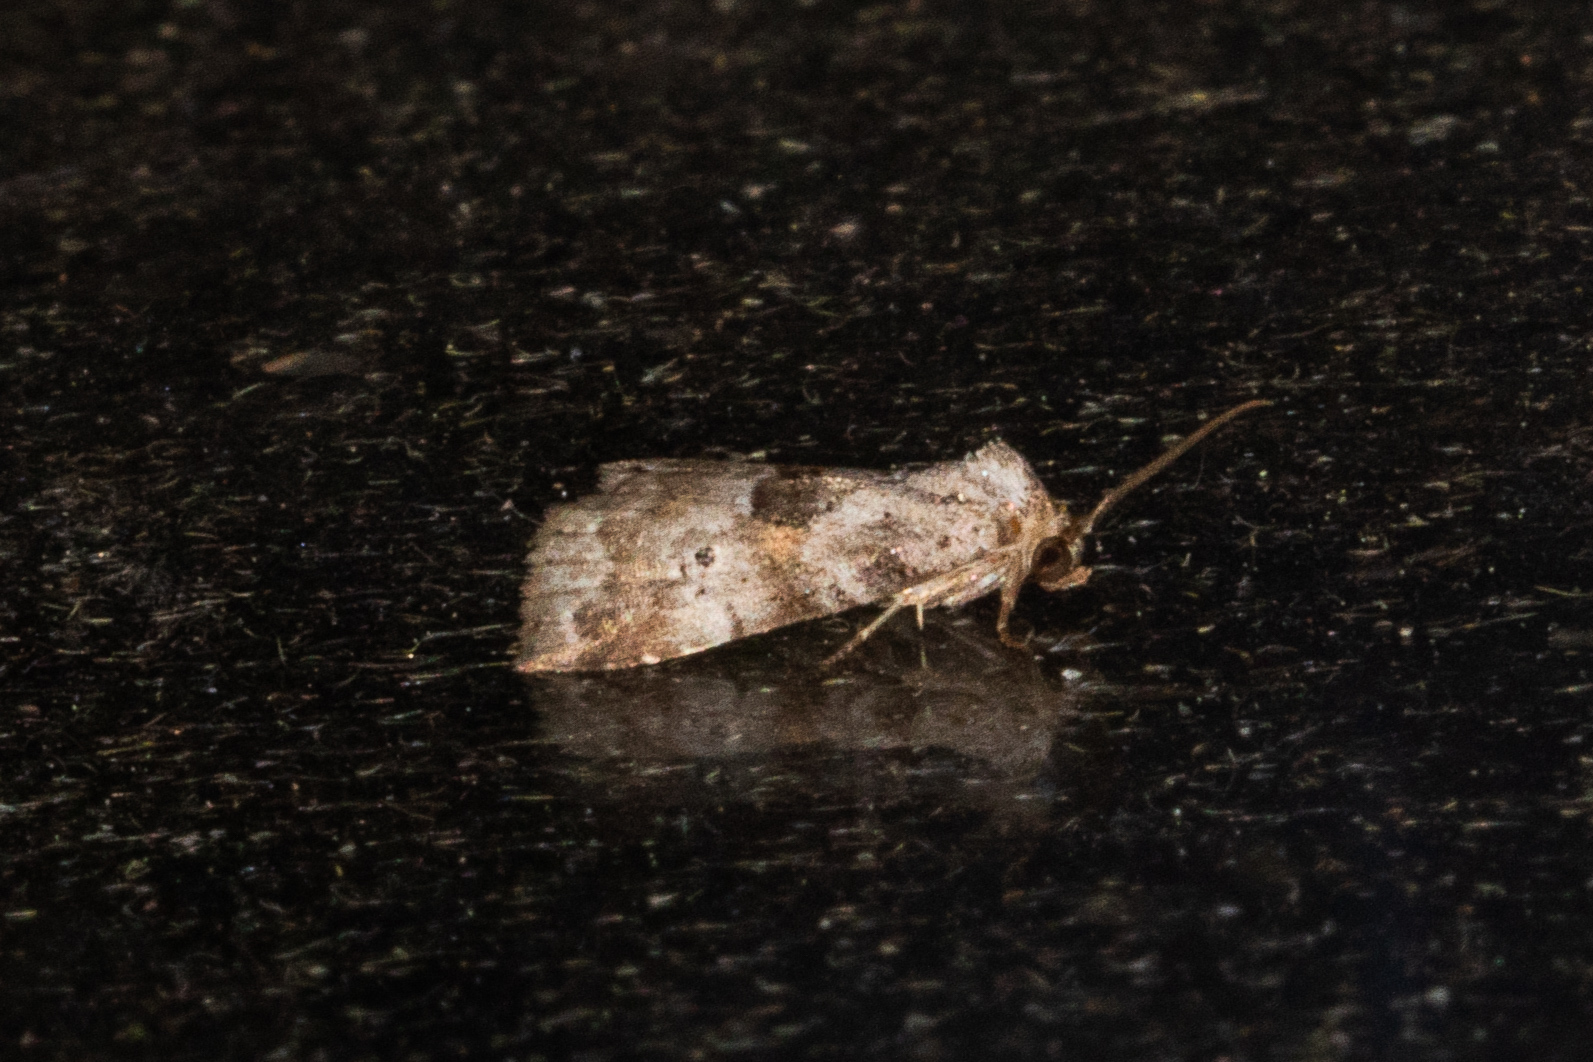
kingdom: Animalia
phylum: Arthropoda
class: Insecta
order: Lepidoptera
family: Erebidae
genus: Hyperstrotia
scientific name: Hyperstrotia secta
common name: Black-patched graylet
